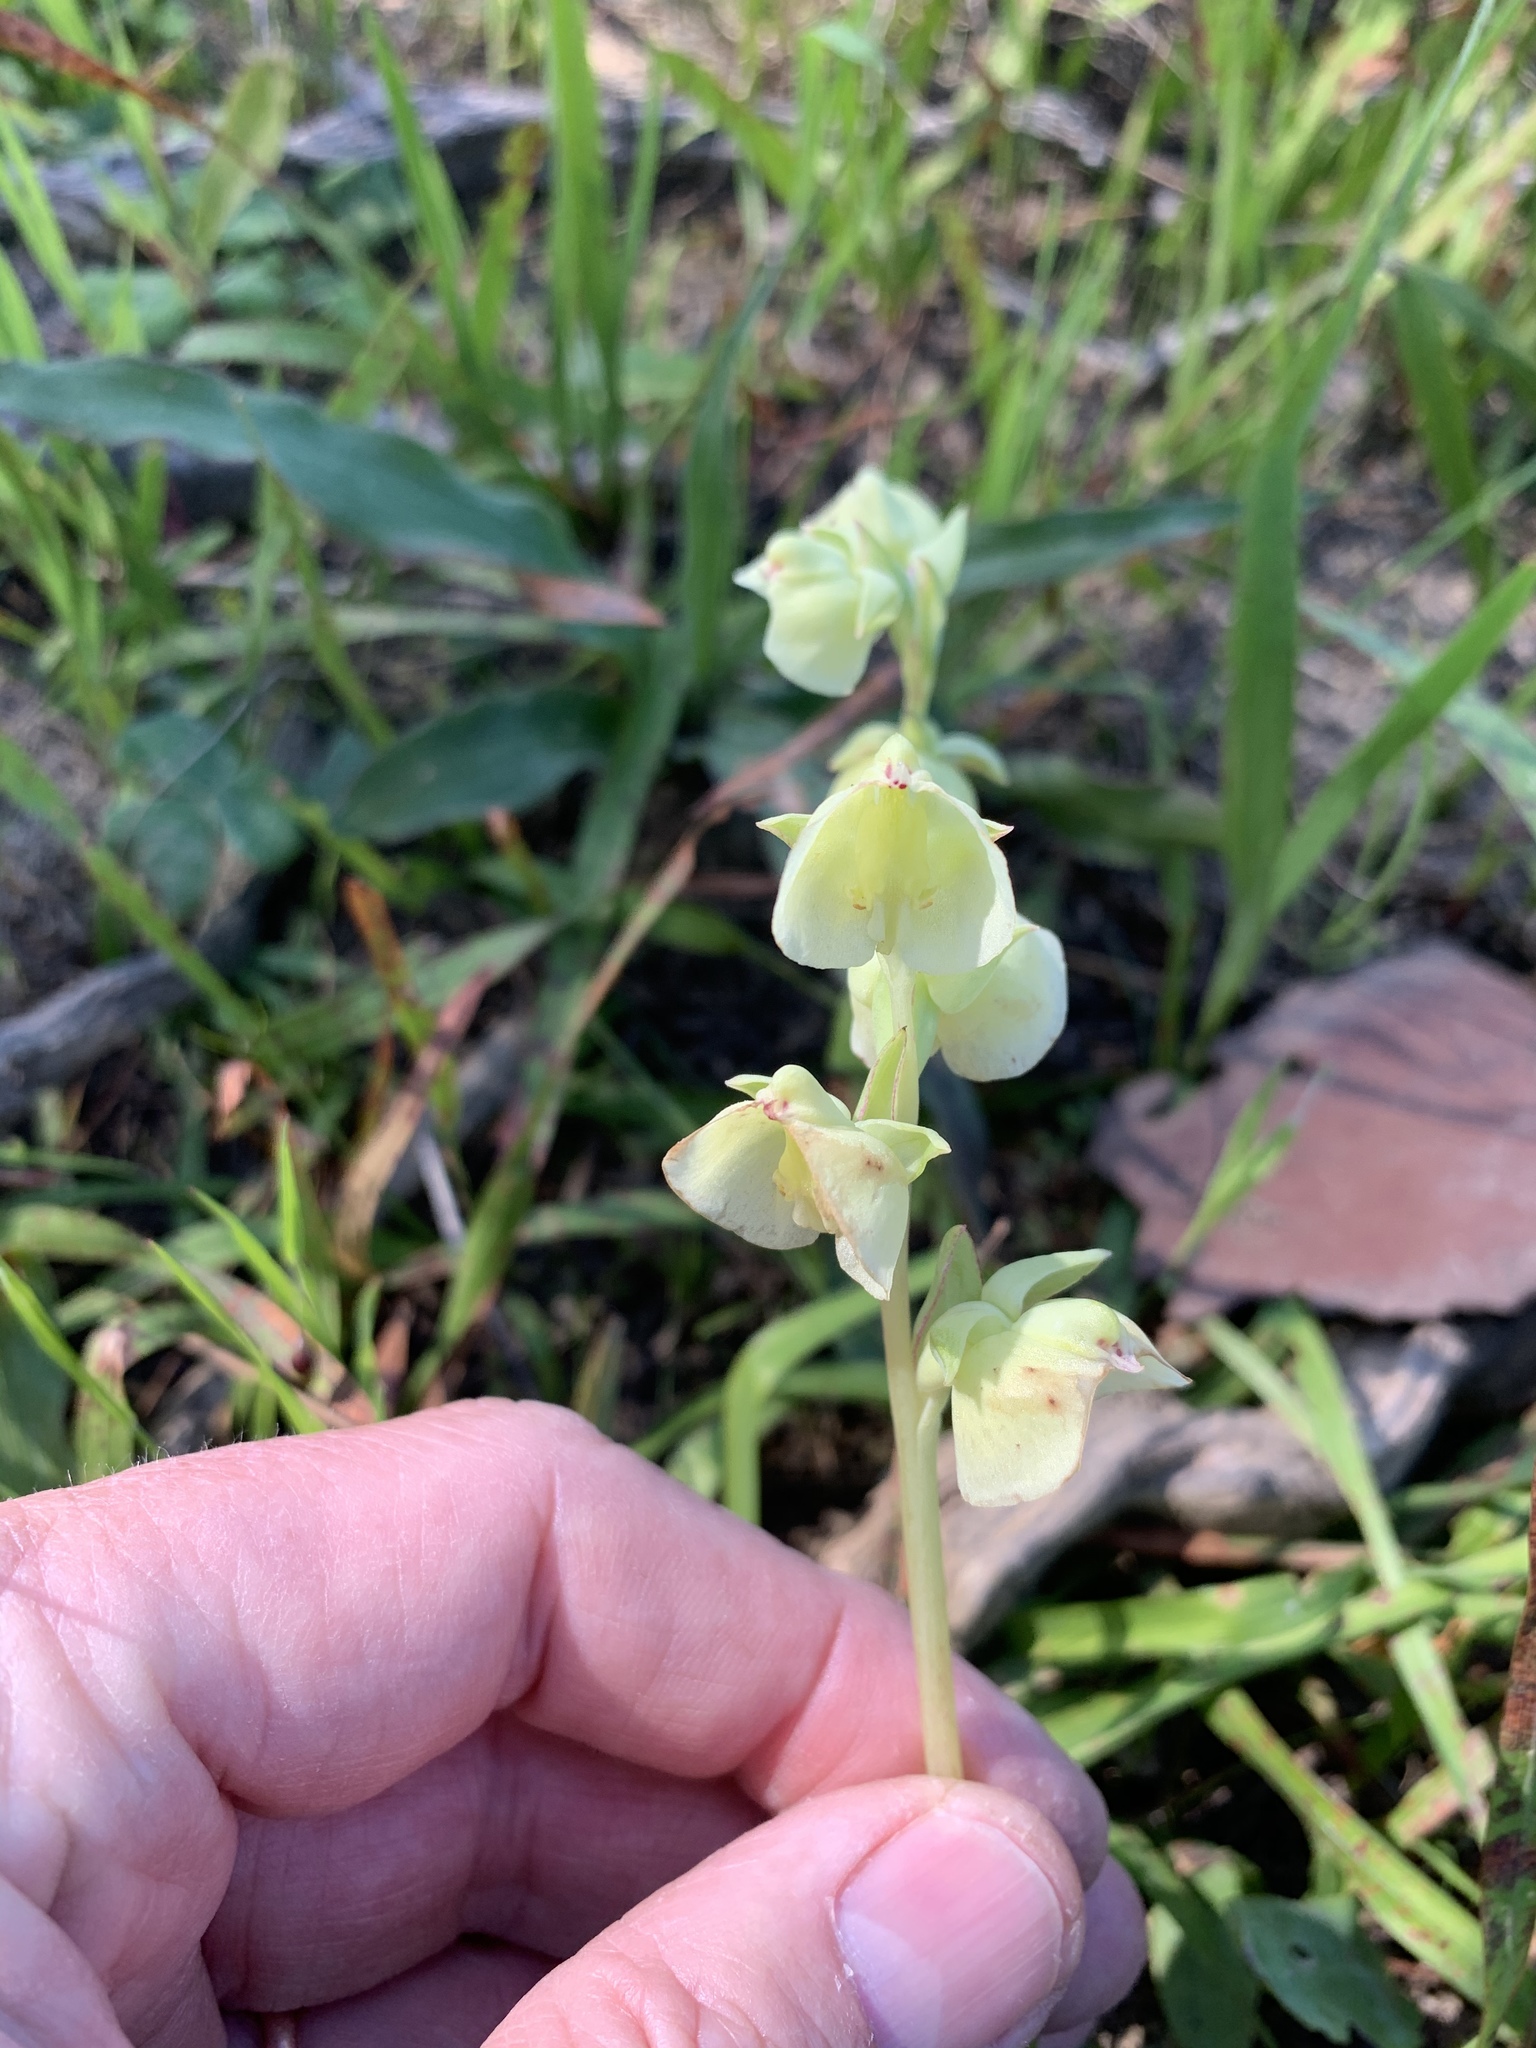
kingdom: Plantae
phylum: Tracheophyta
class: Liliopsida
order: Asparagales
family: Orchidaceae
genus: Pterygodium
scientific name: Pterygodium catholicum
